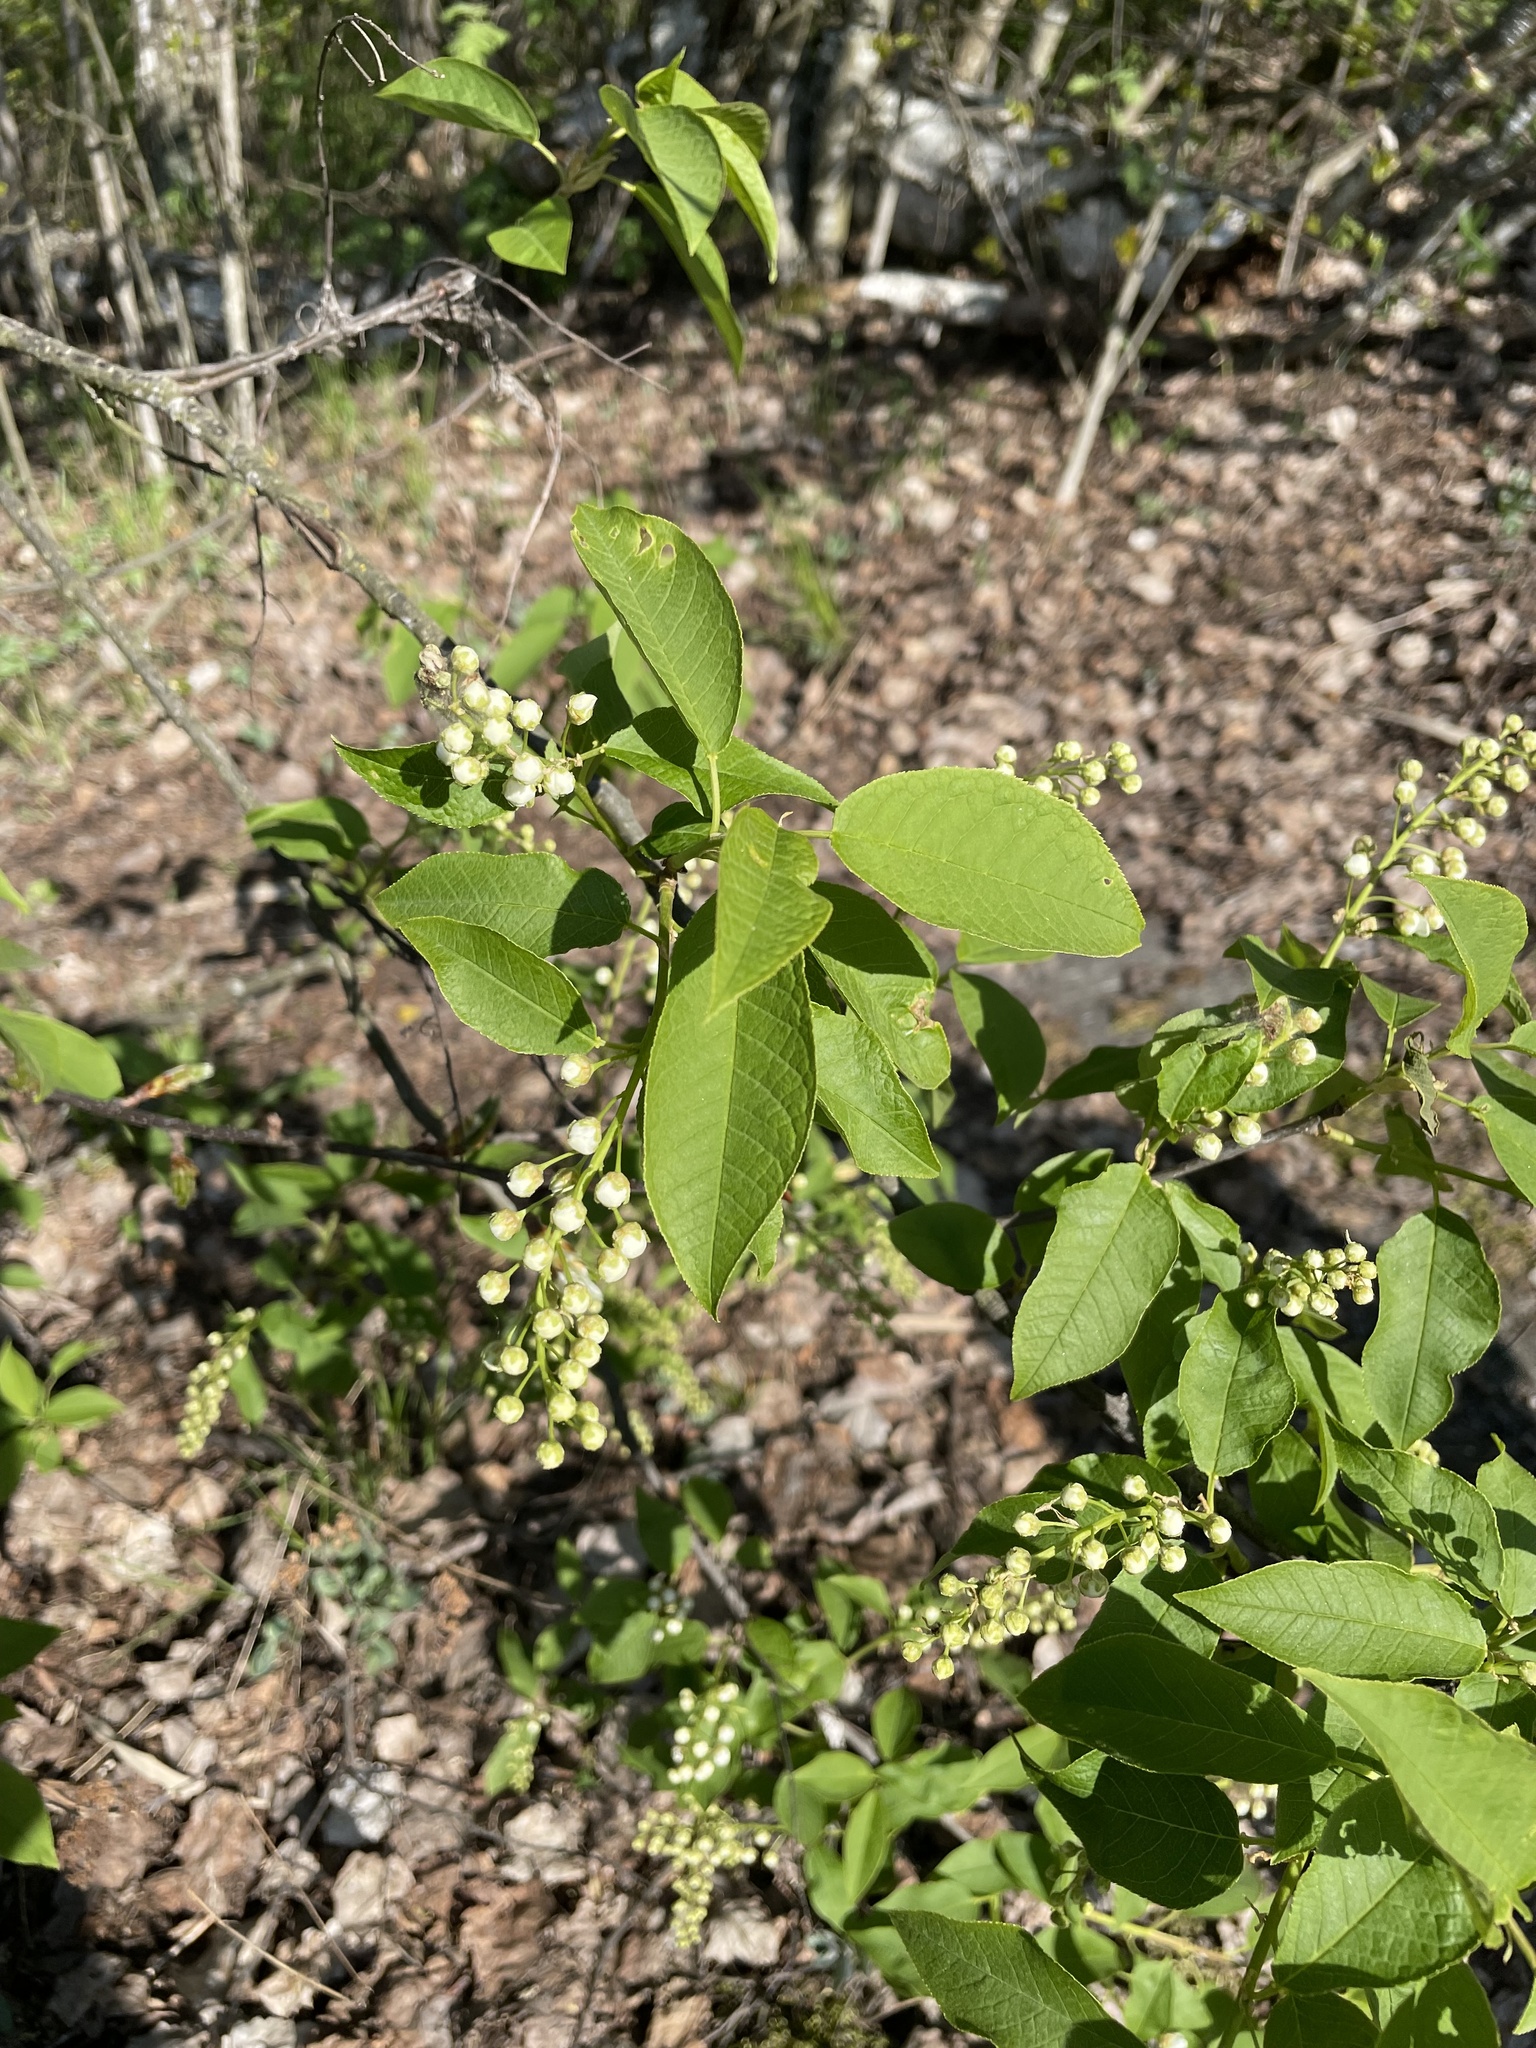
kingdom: Plantae
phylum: Tracheophyta
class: Magnoliopsida
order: Rosales
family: Rosaceae
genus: Prunus
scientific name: Prunus padus
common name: Bird cherry
